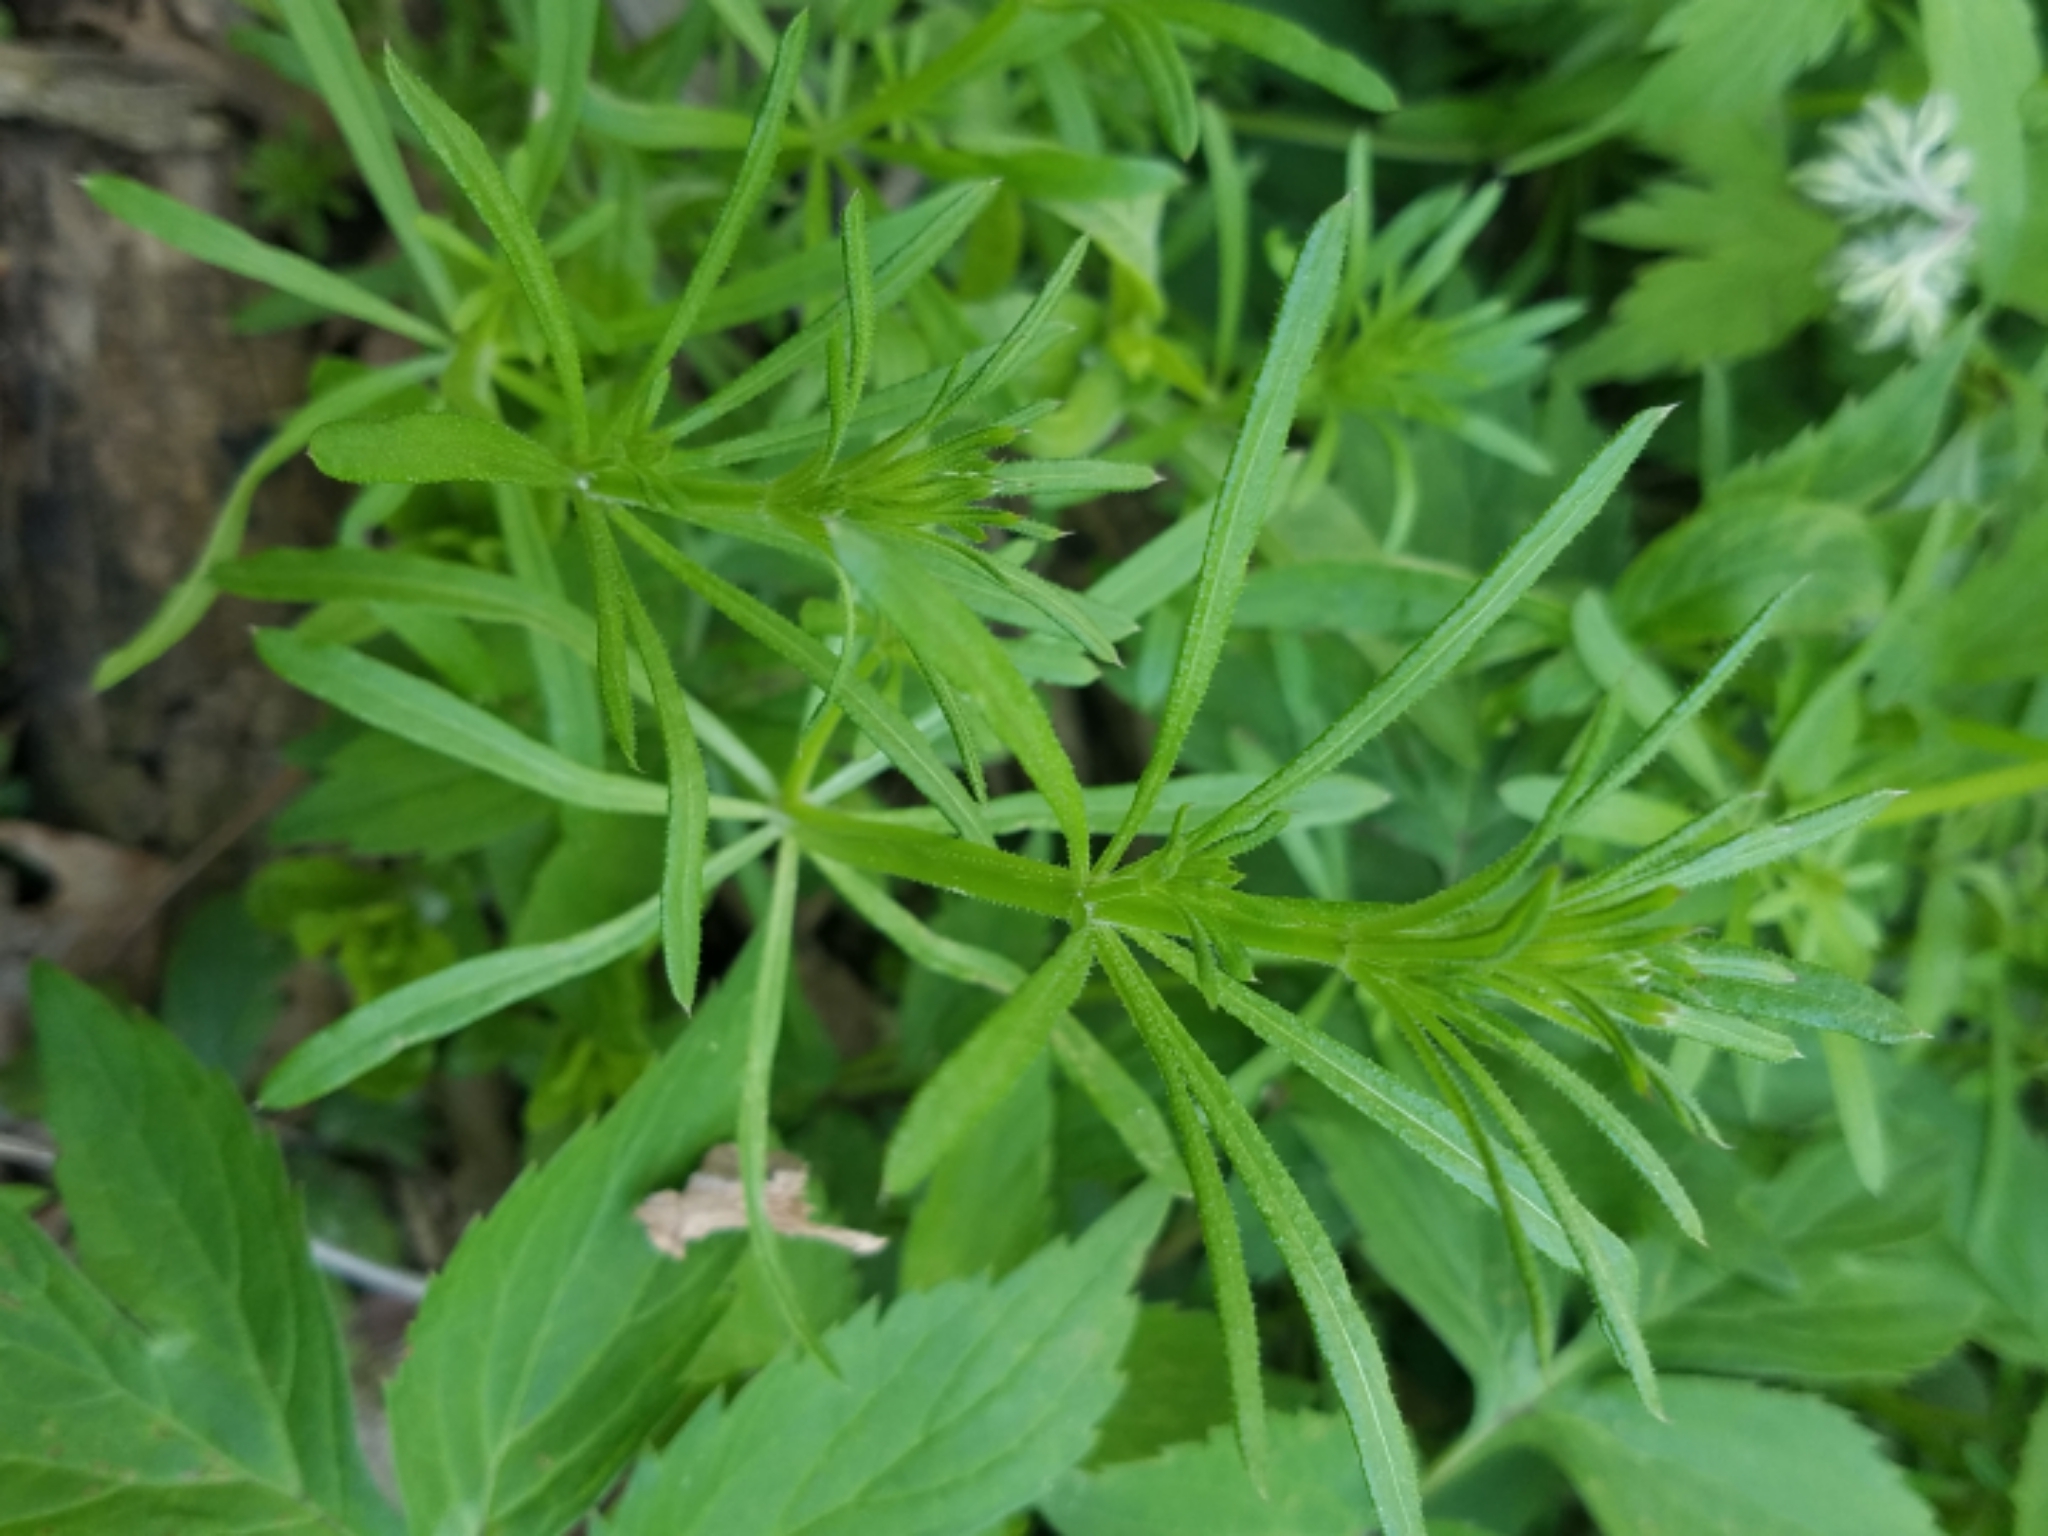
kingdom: Plantae
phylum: Tracheophyta
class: Magnoliopsida
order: Gentianales
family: Rubiaceae
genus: Galium
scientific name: Galium aparine
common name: Cleavers
